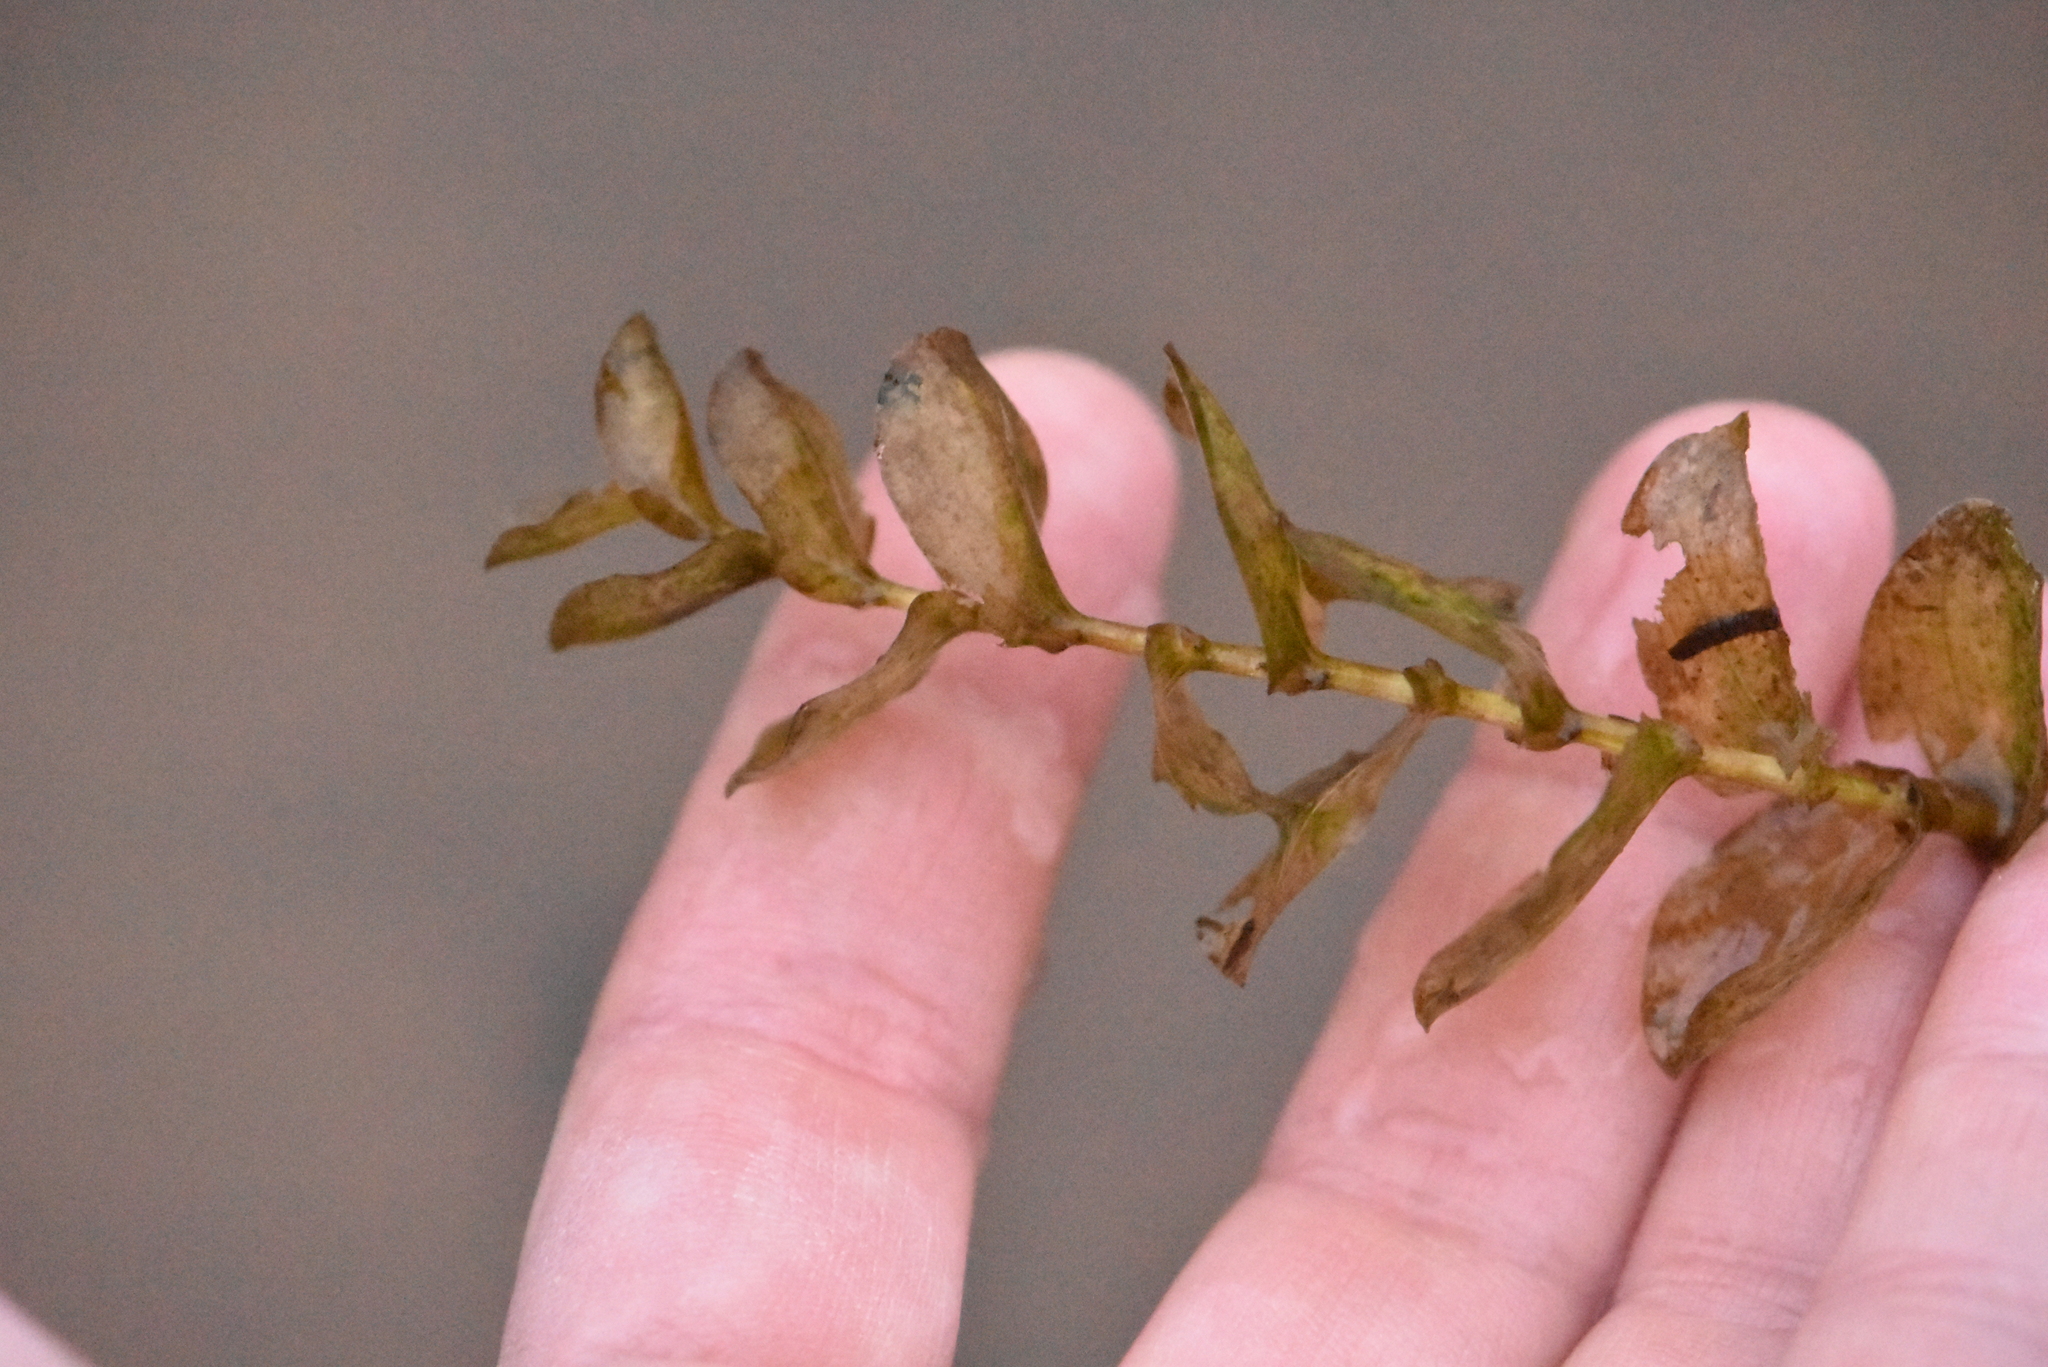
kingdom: Plantae
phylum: Tracheophyta
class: Liliopsida
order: Alismatales
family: Potamogetonaceae
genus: Potamogeton
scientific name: Potamogeton perfoliatus
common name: Perfoliate pondweed
